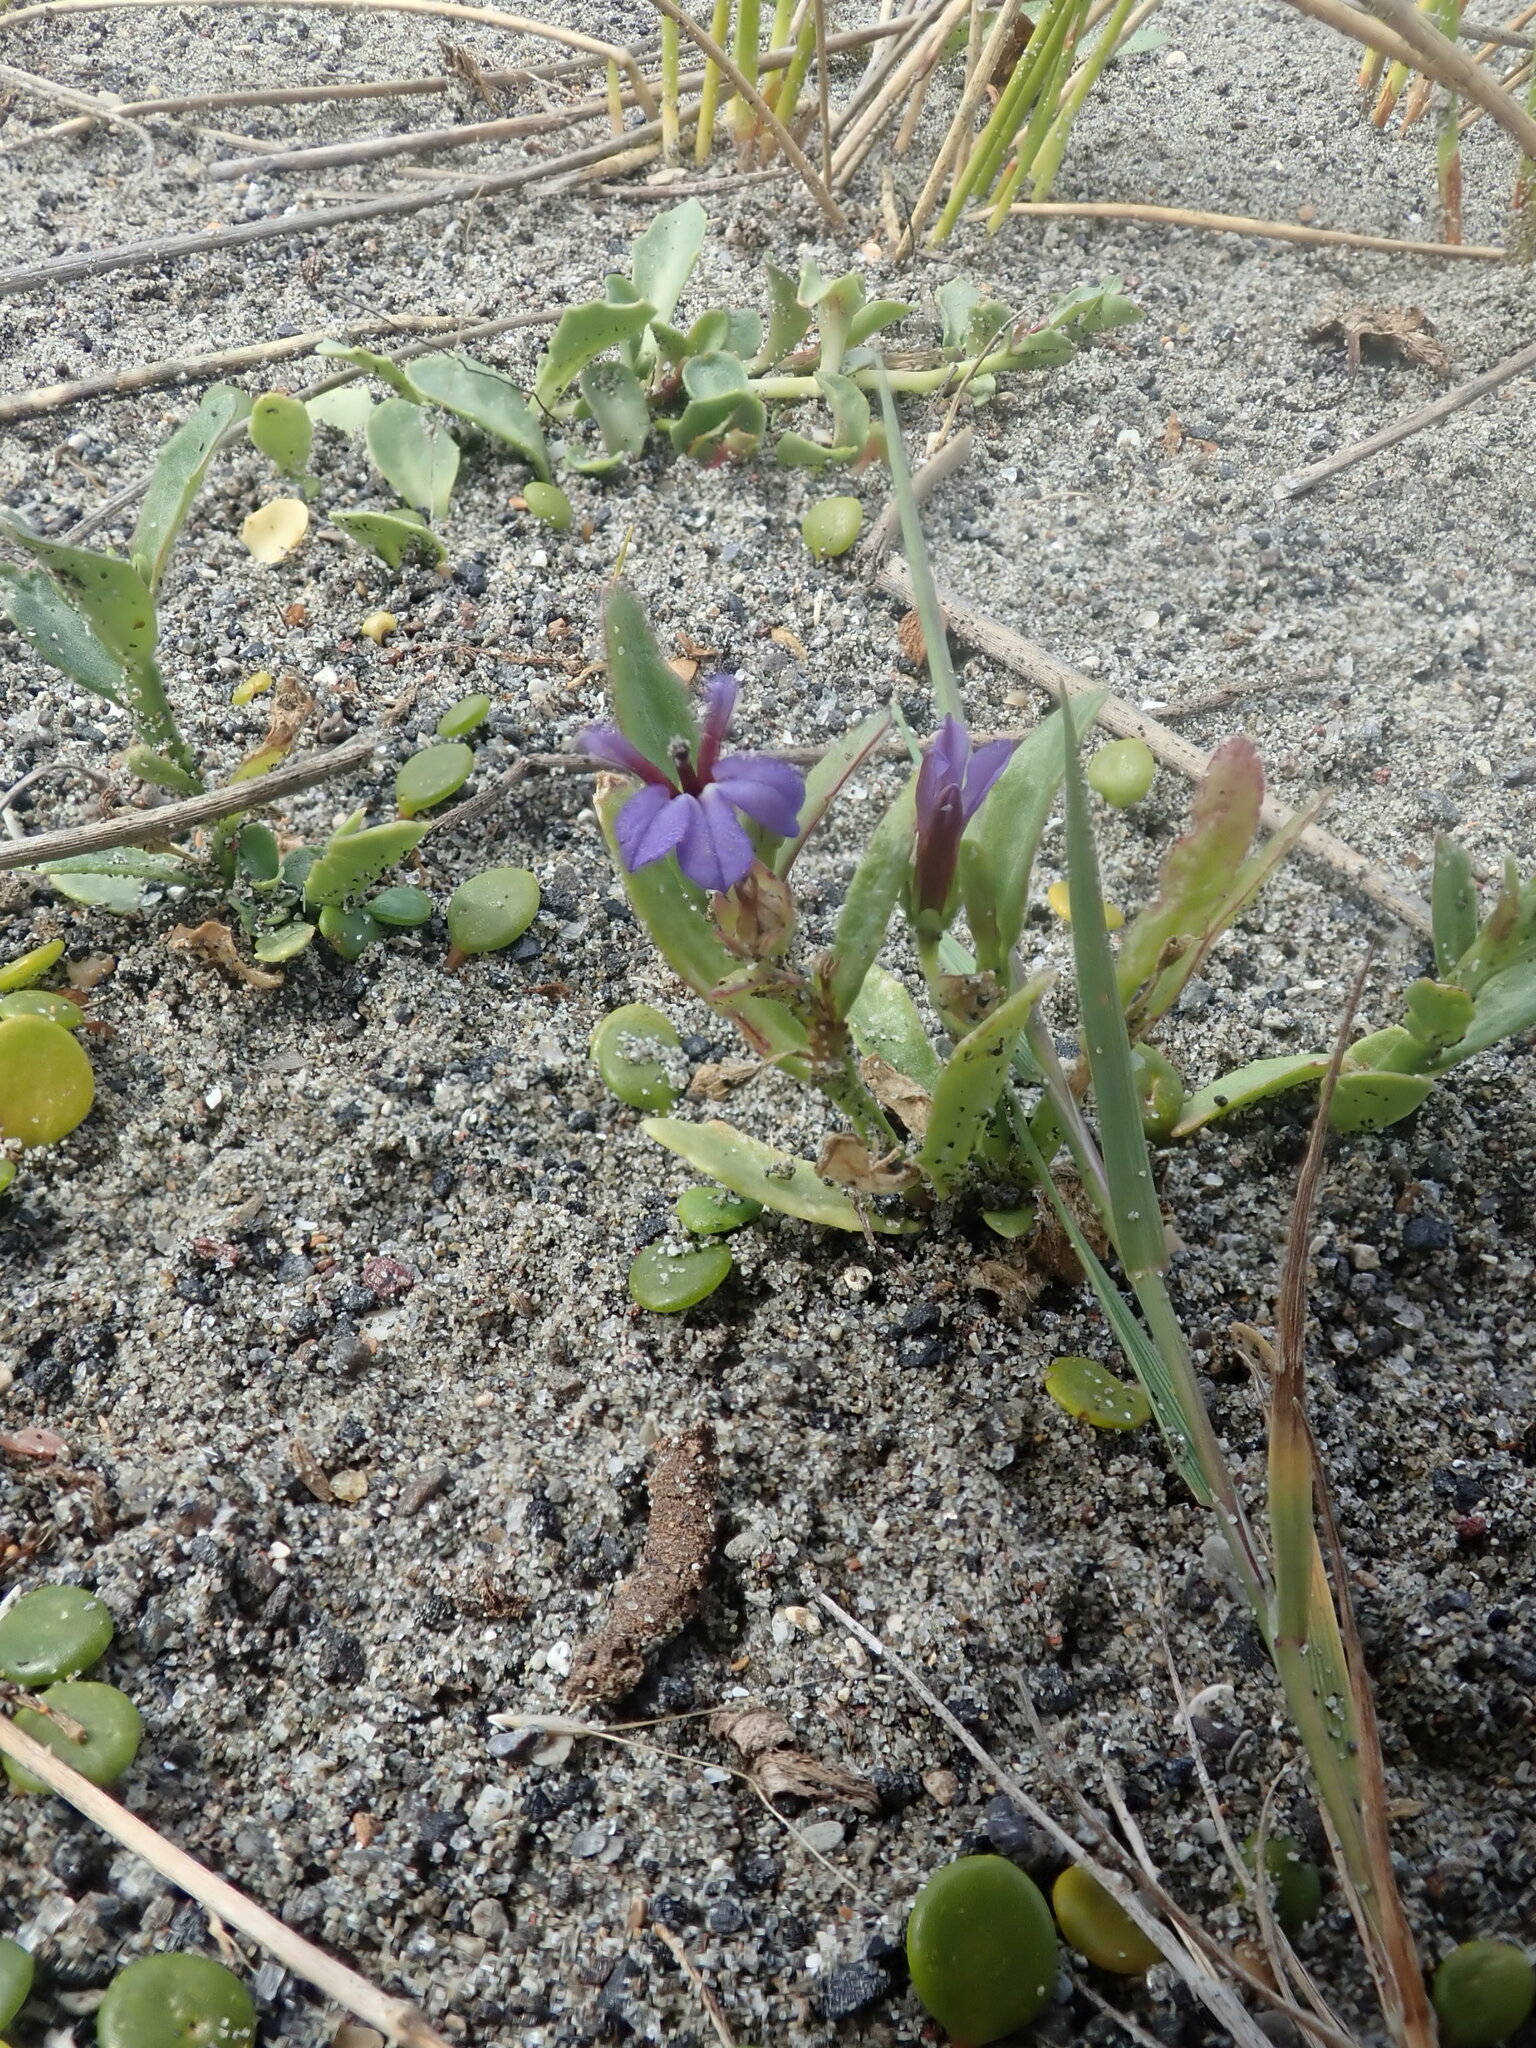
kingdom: Plantae
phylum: Tracheophyta
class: Magnoliopsida
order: Asterales
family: Campanulaceae
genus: Lobelia
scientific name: Lobelia anceps
